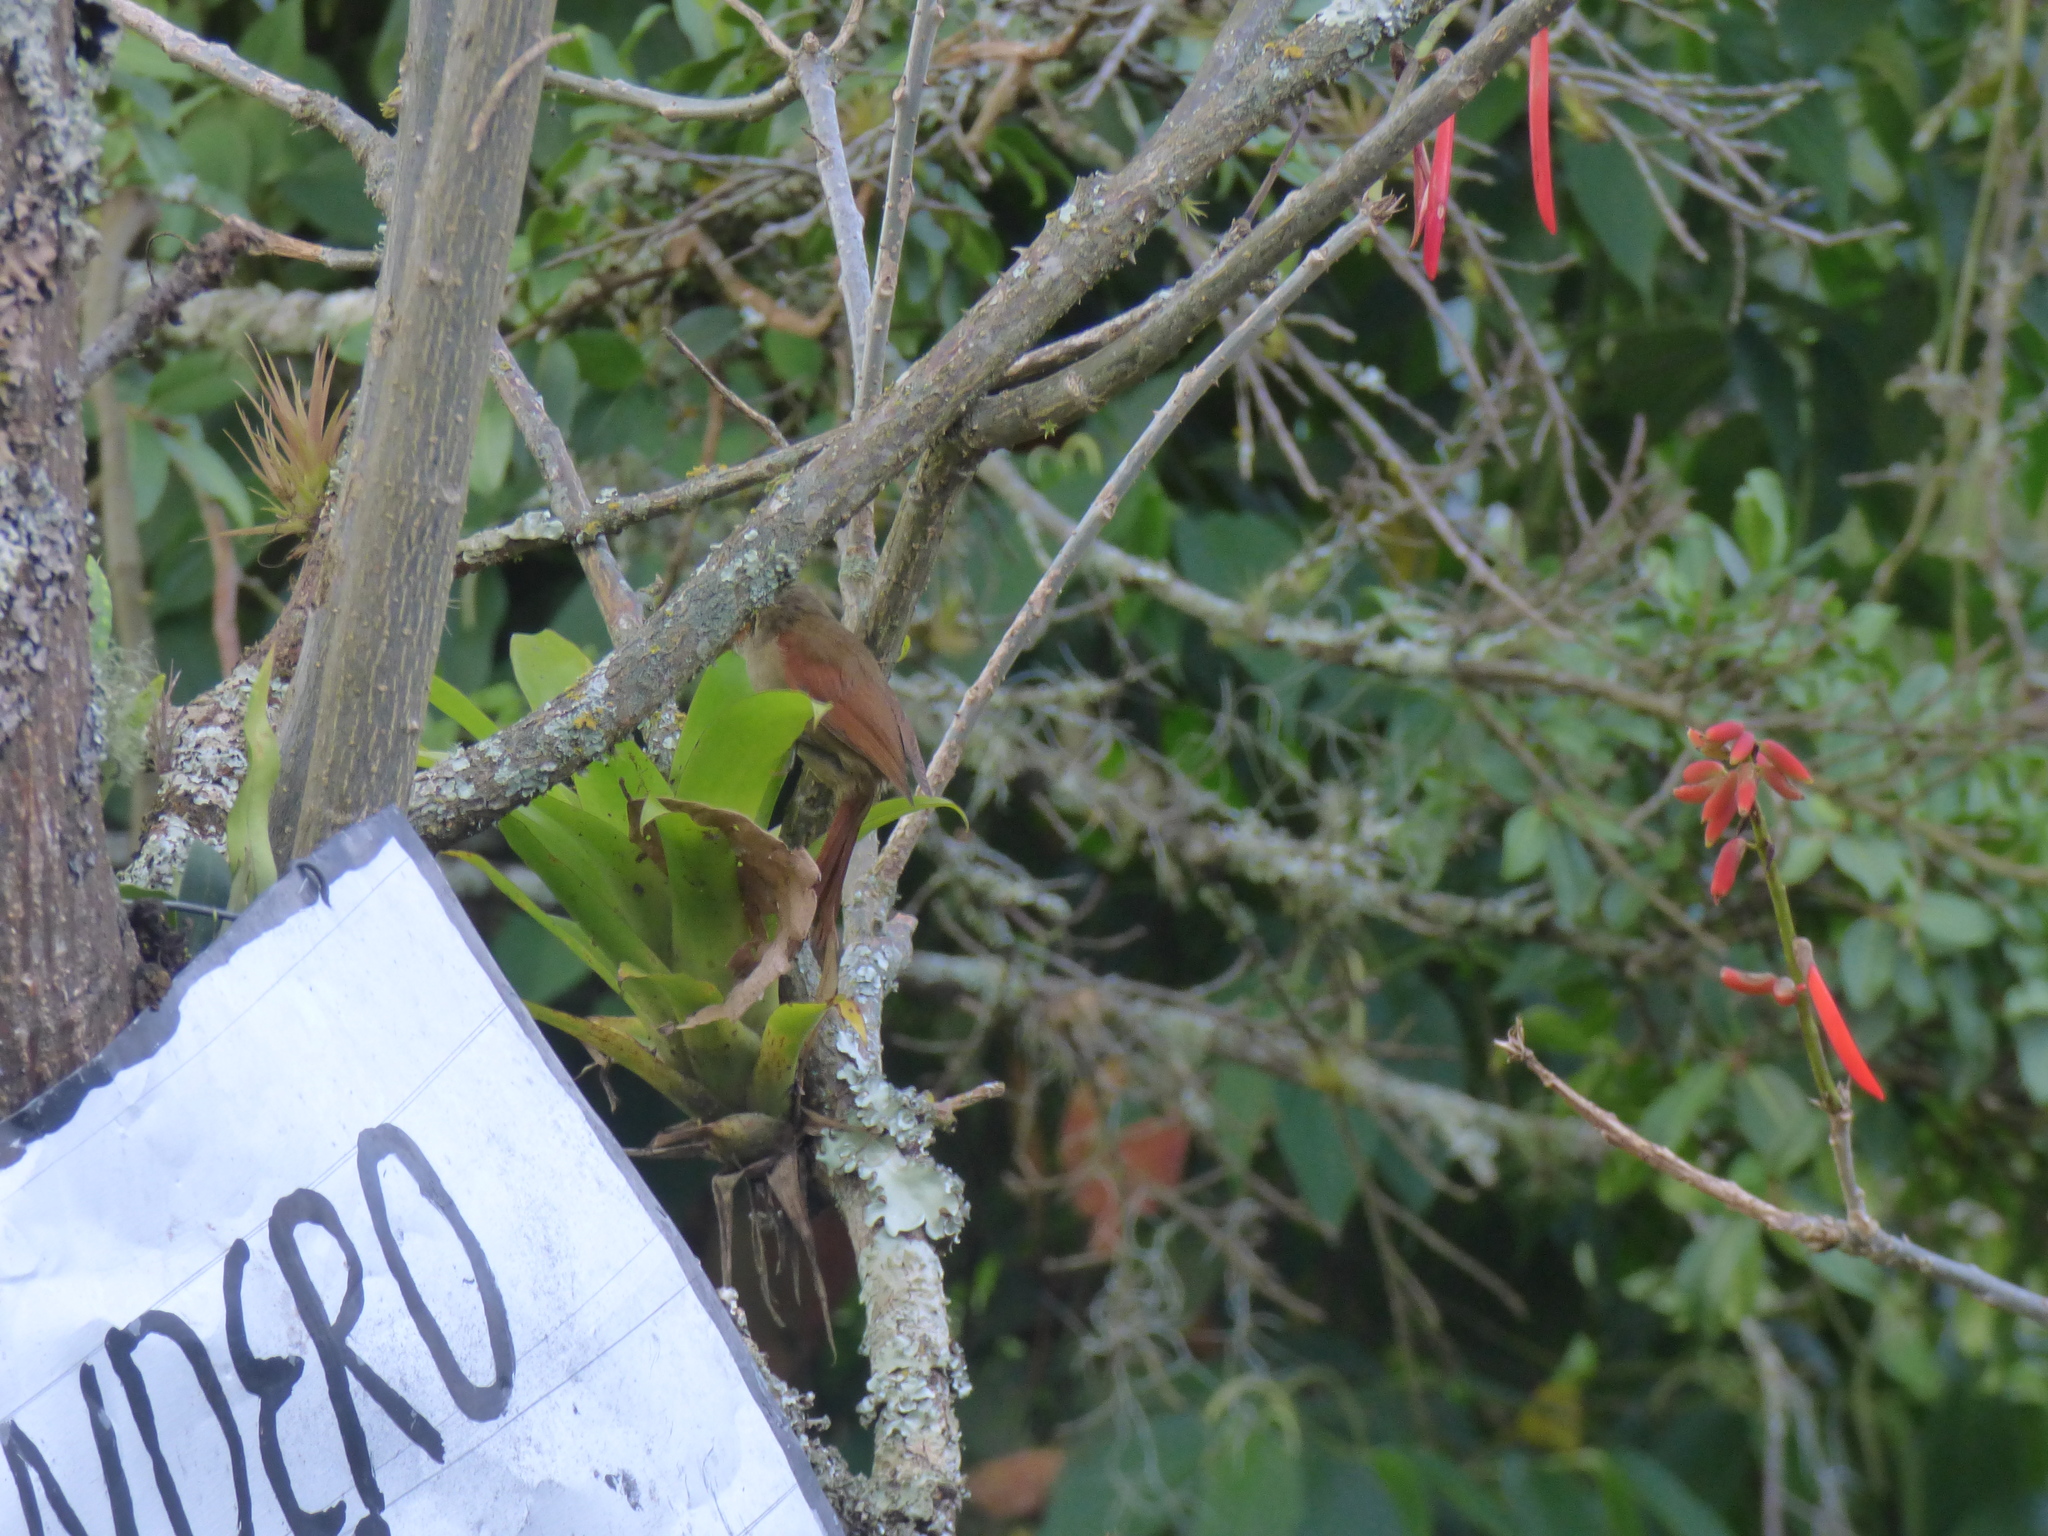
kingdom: Animalia
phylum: Chordata
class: Aves
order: Passeriformes
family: Furnariidae
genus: Cranioleuca
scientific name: Cranioleuca erythrops
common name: Red-faced spinetail
